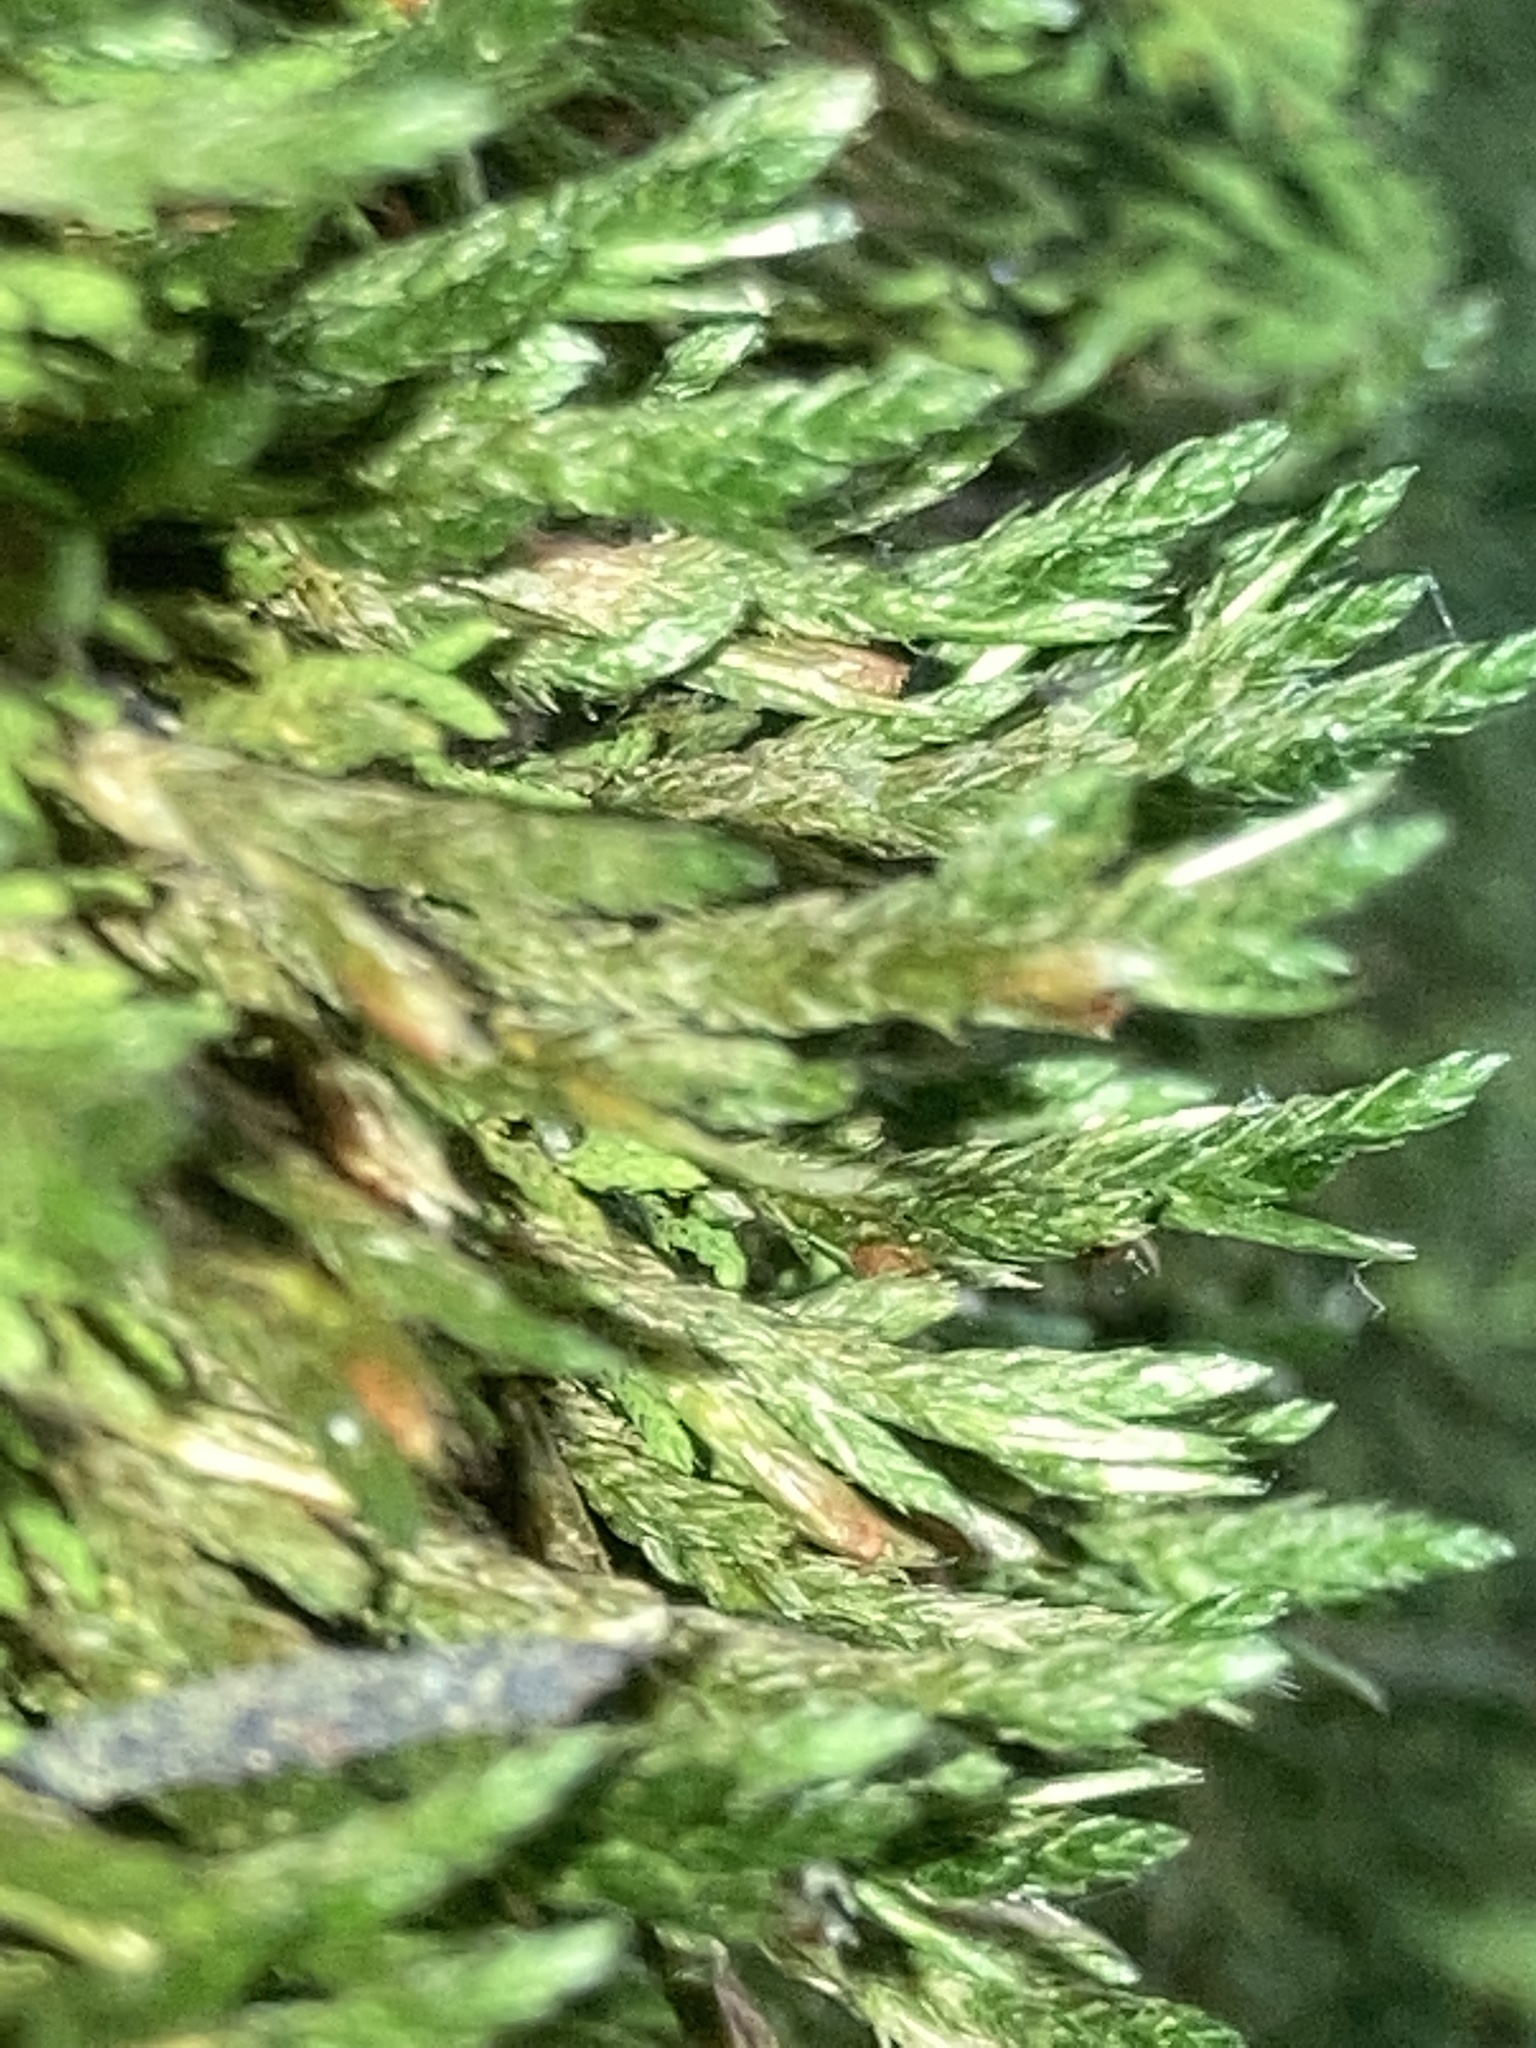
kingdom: Plantae
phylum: Bryophyta
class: Bryopsida
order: Hypnales
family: Neckeraceae
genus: Forsstroemia
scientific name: Forsstroemia trichomitria
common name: Fan moss
